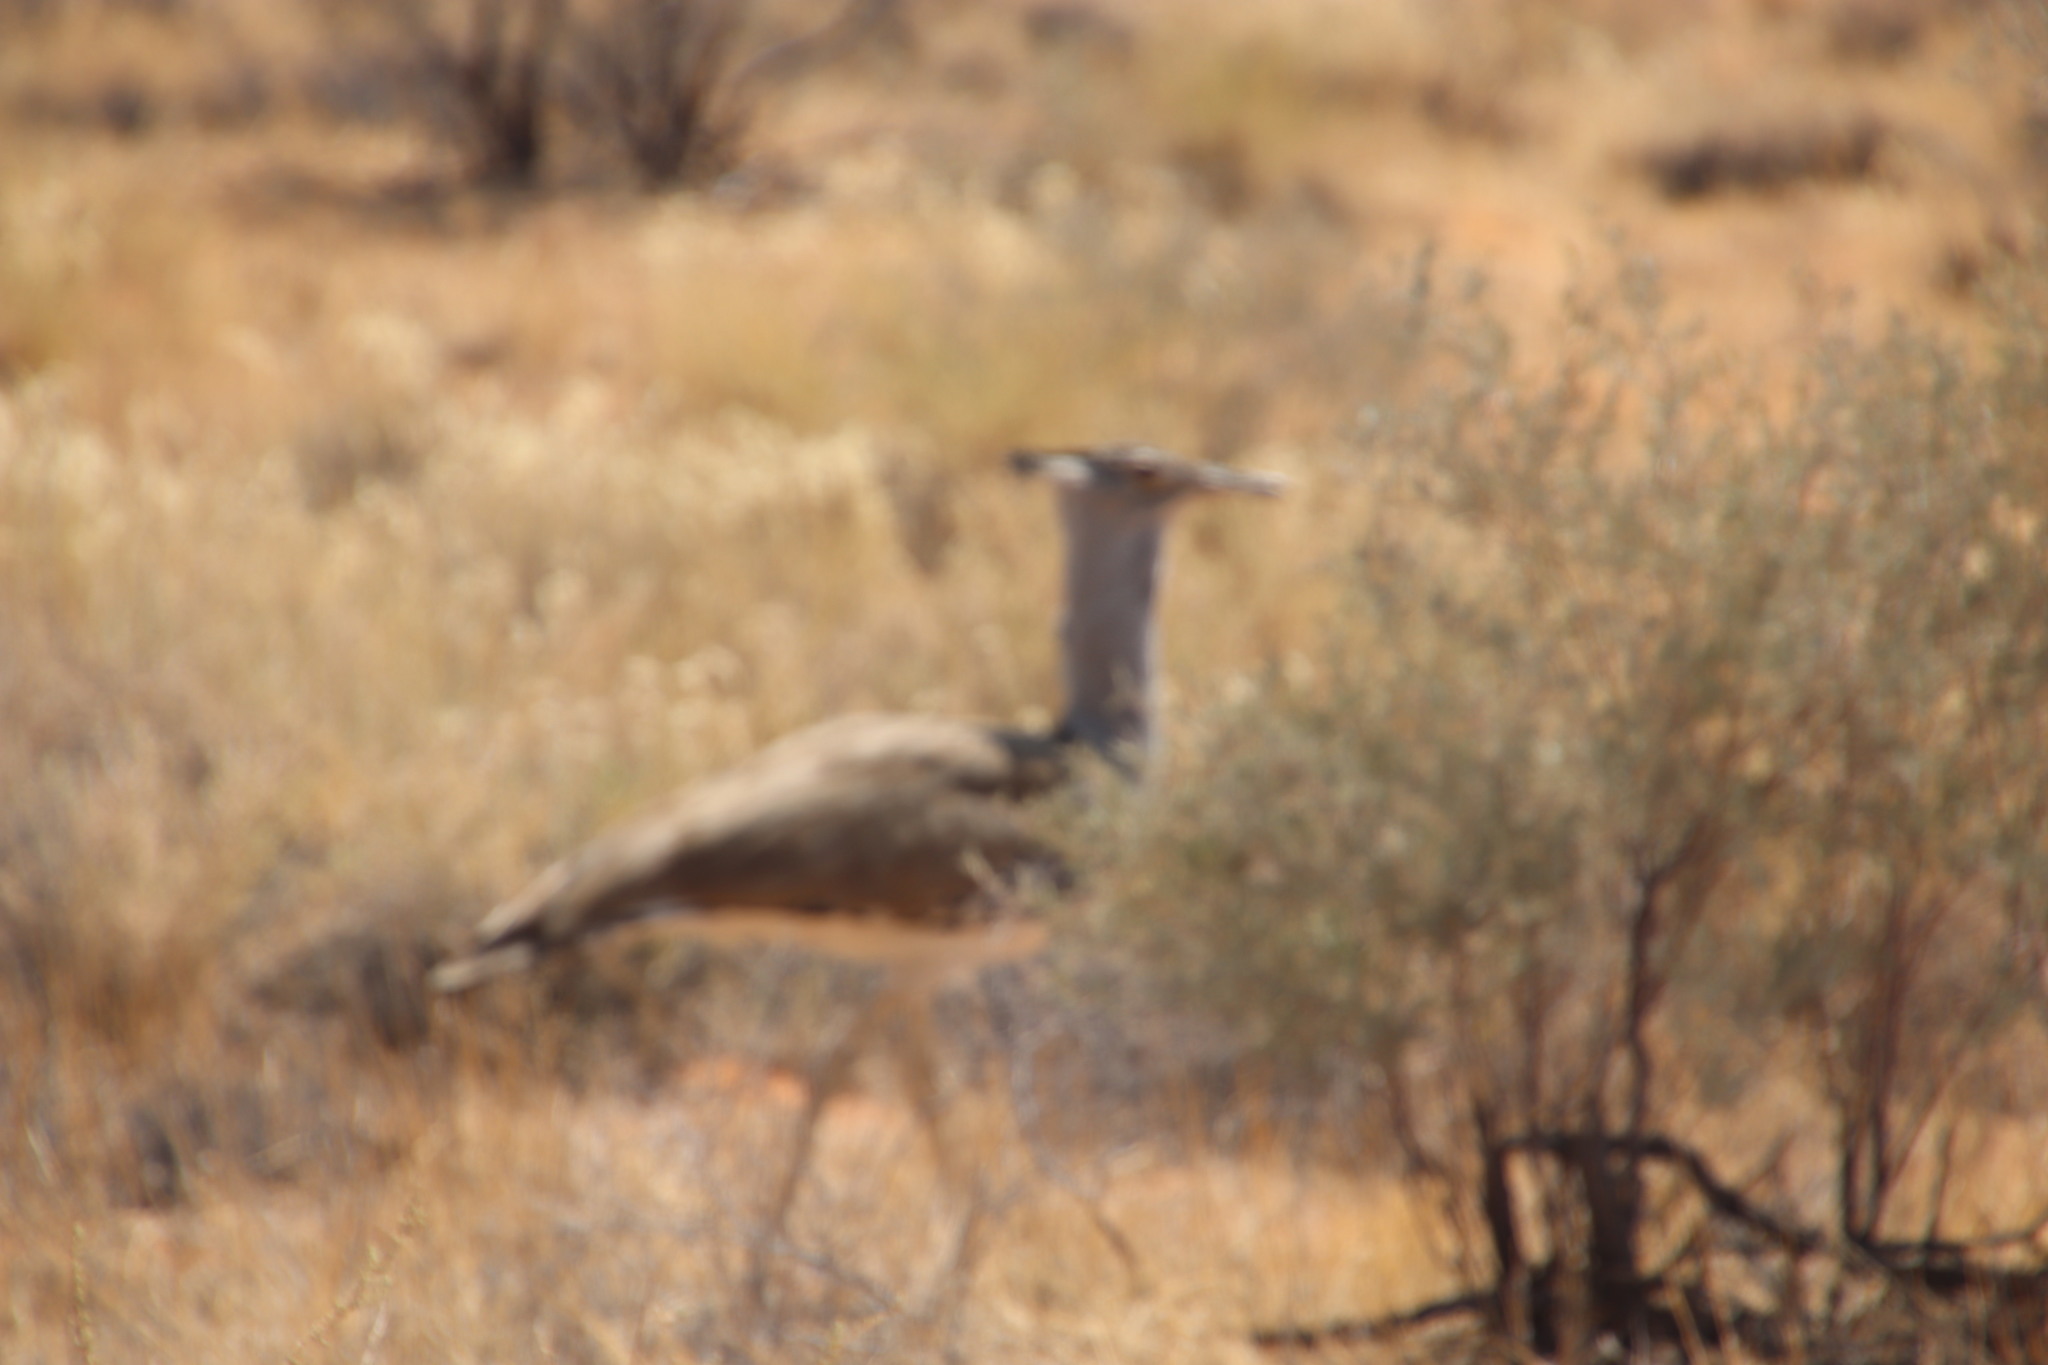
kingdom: Animalia
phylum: Chordata
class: Aves
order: Otidiformes
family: Otididae
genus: Ardeotis
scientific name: Ardeotis kori
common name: Kori bustard
